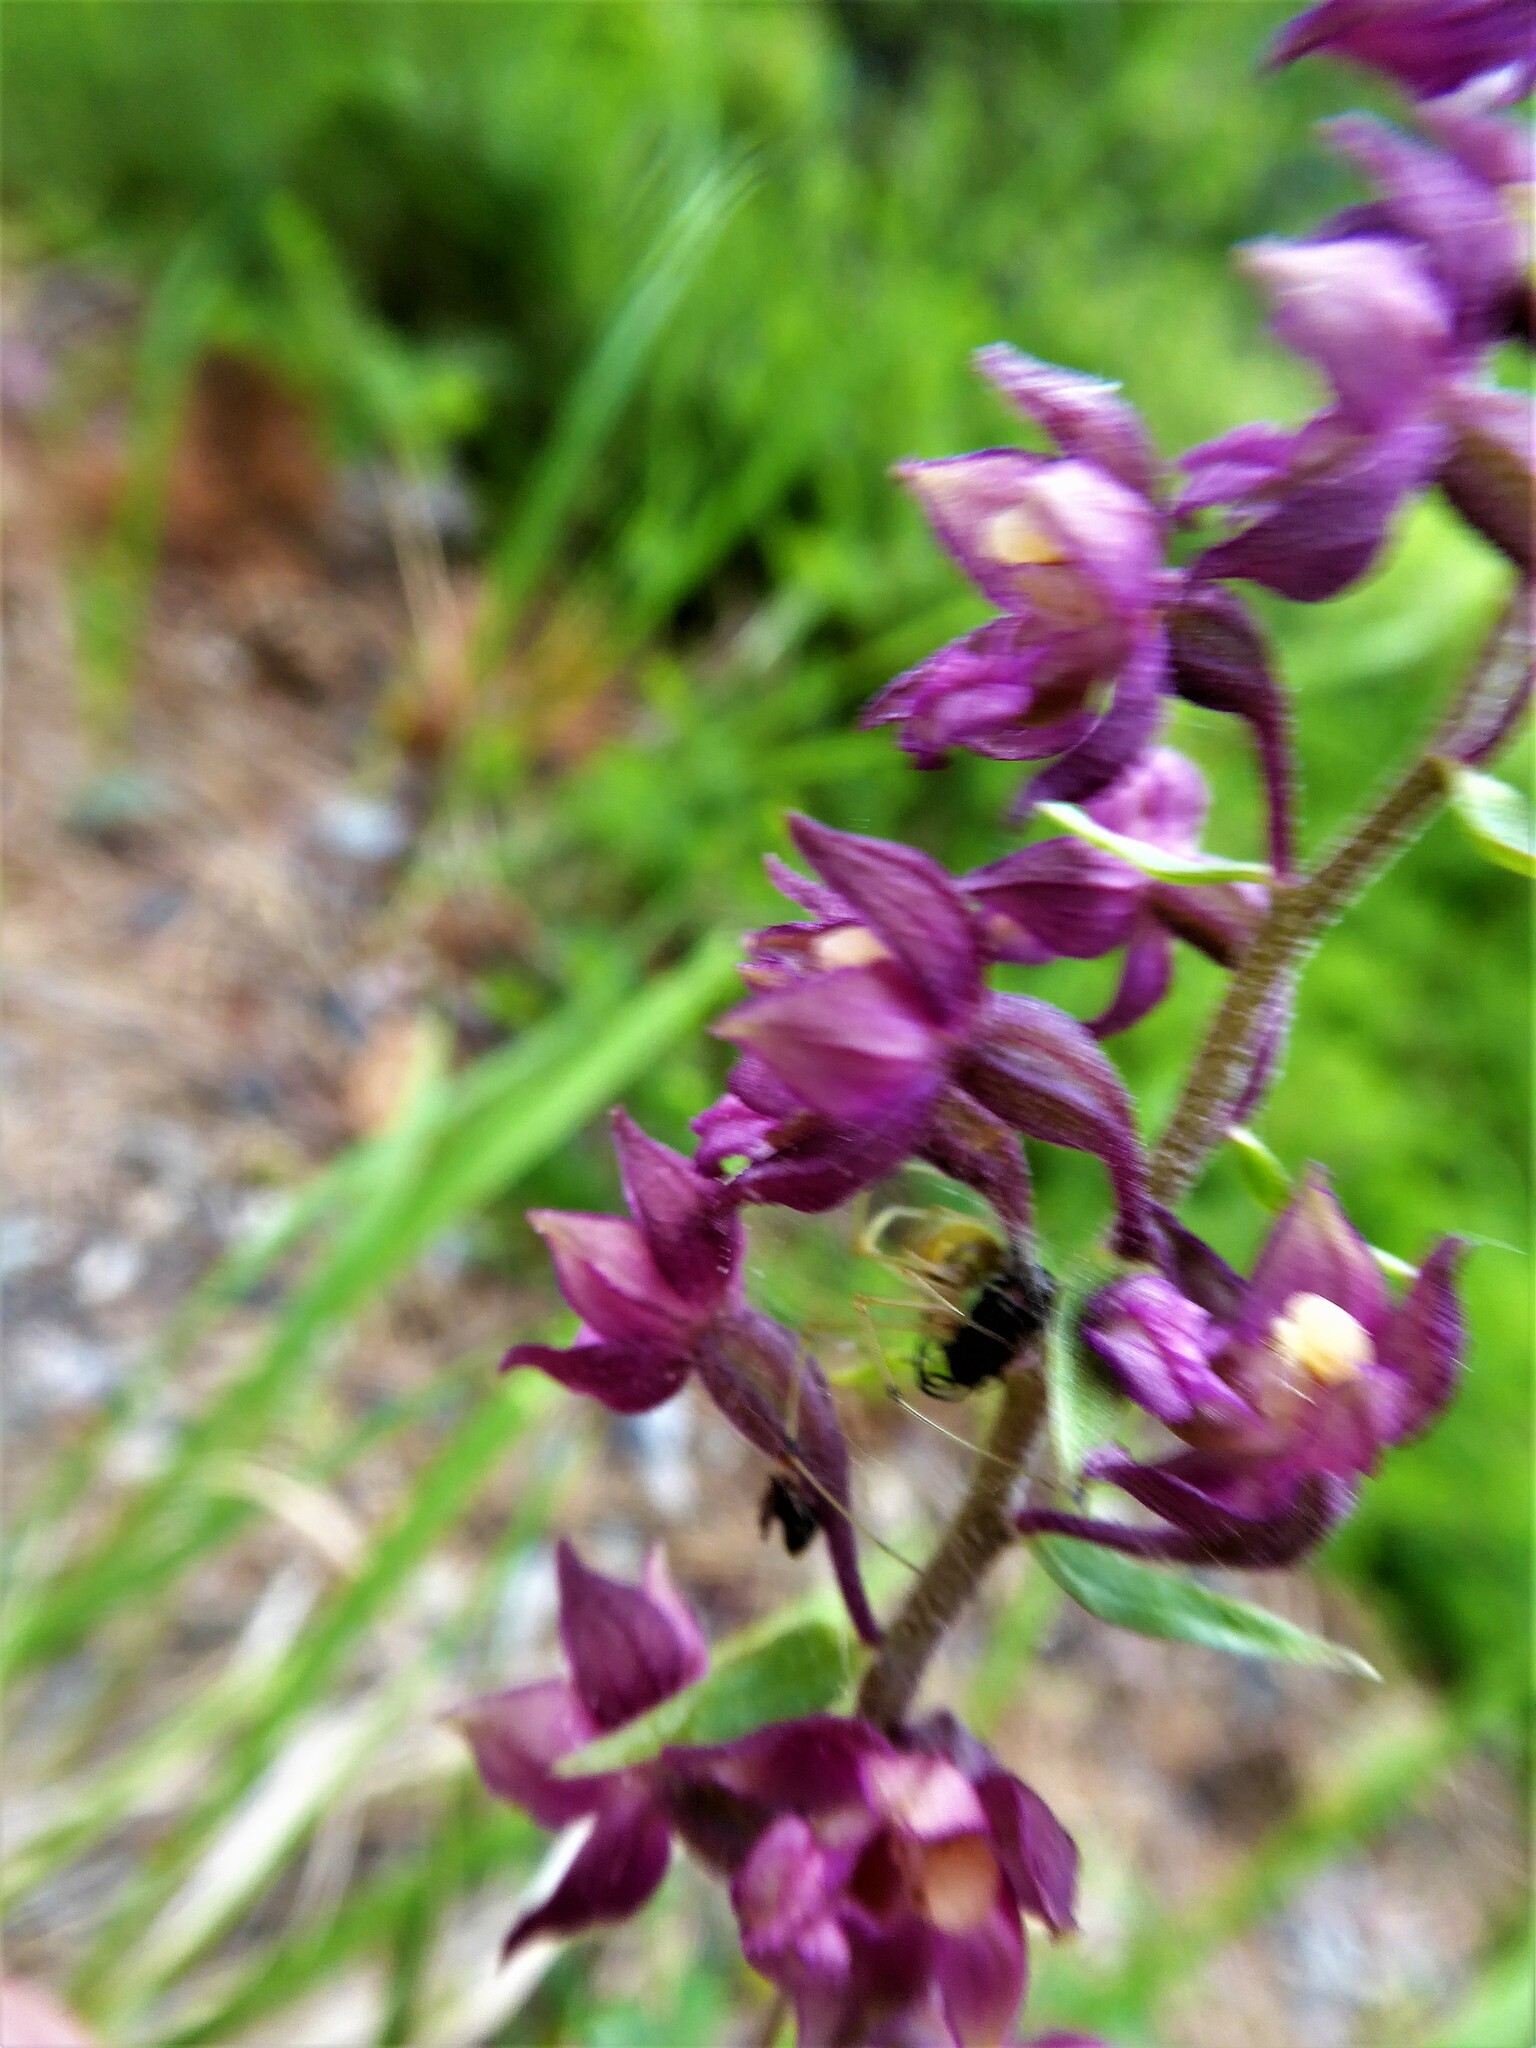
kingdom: Plantae
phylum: Tracheophyta
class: Liliopsida
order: Asparagales
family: Orchidaceae
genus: Epipactis
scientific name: Epipactis atrorubens
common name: Dark-red helleborine
